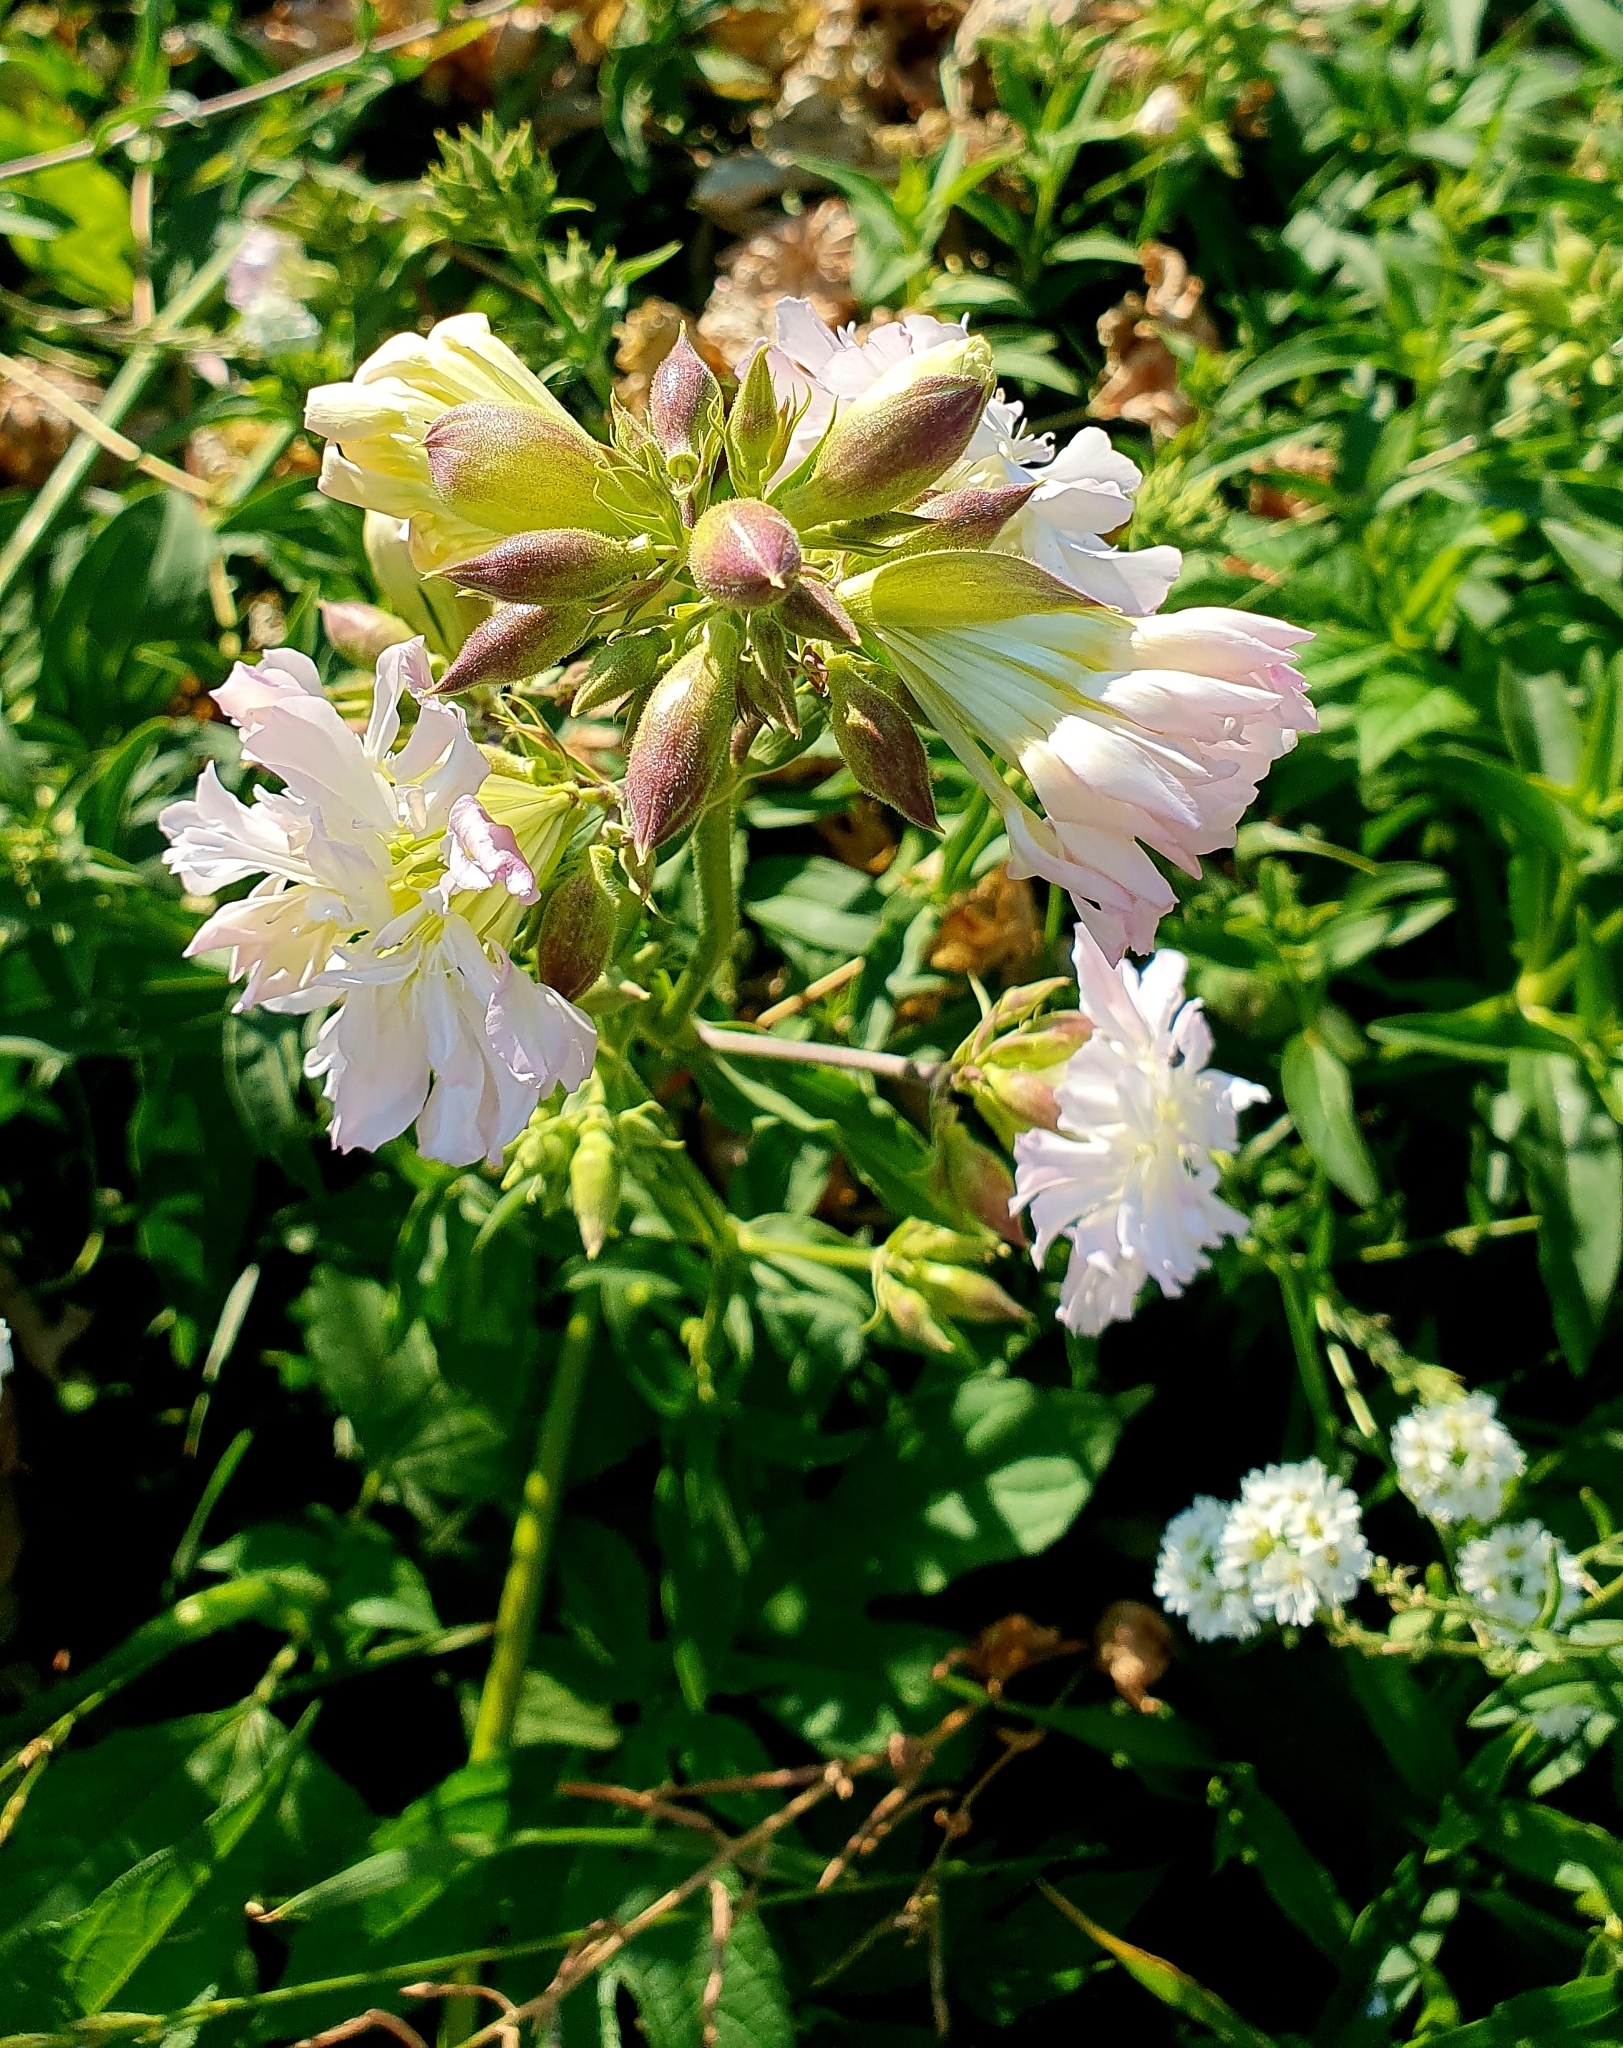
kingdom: Plantae
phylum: Tracheophyta
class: Magnoliopsida
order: Caryophyllales
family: Caryophyllaceae
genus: Saponaria
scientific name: Saponaria officinalis
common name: Soapwort
